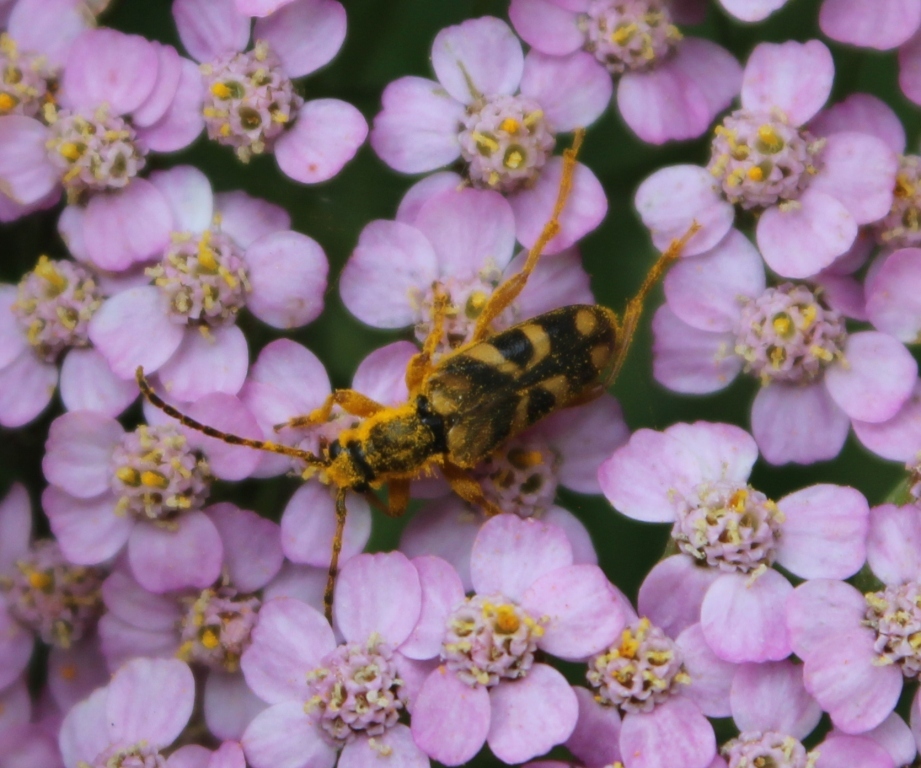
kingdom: Animalia
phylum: Arthropoda
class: Insecta
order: Coleoptera
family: Cerambycidae
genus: Xestoleptura
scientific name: Xestoleptura crassicornis
